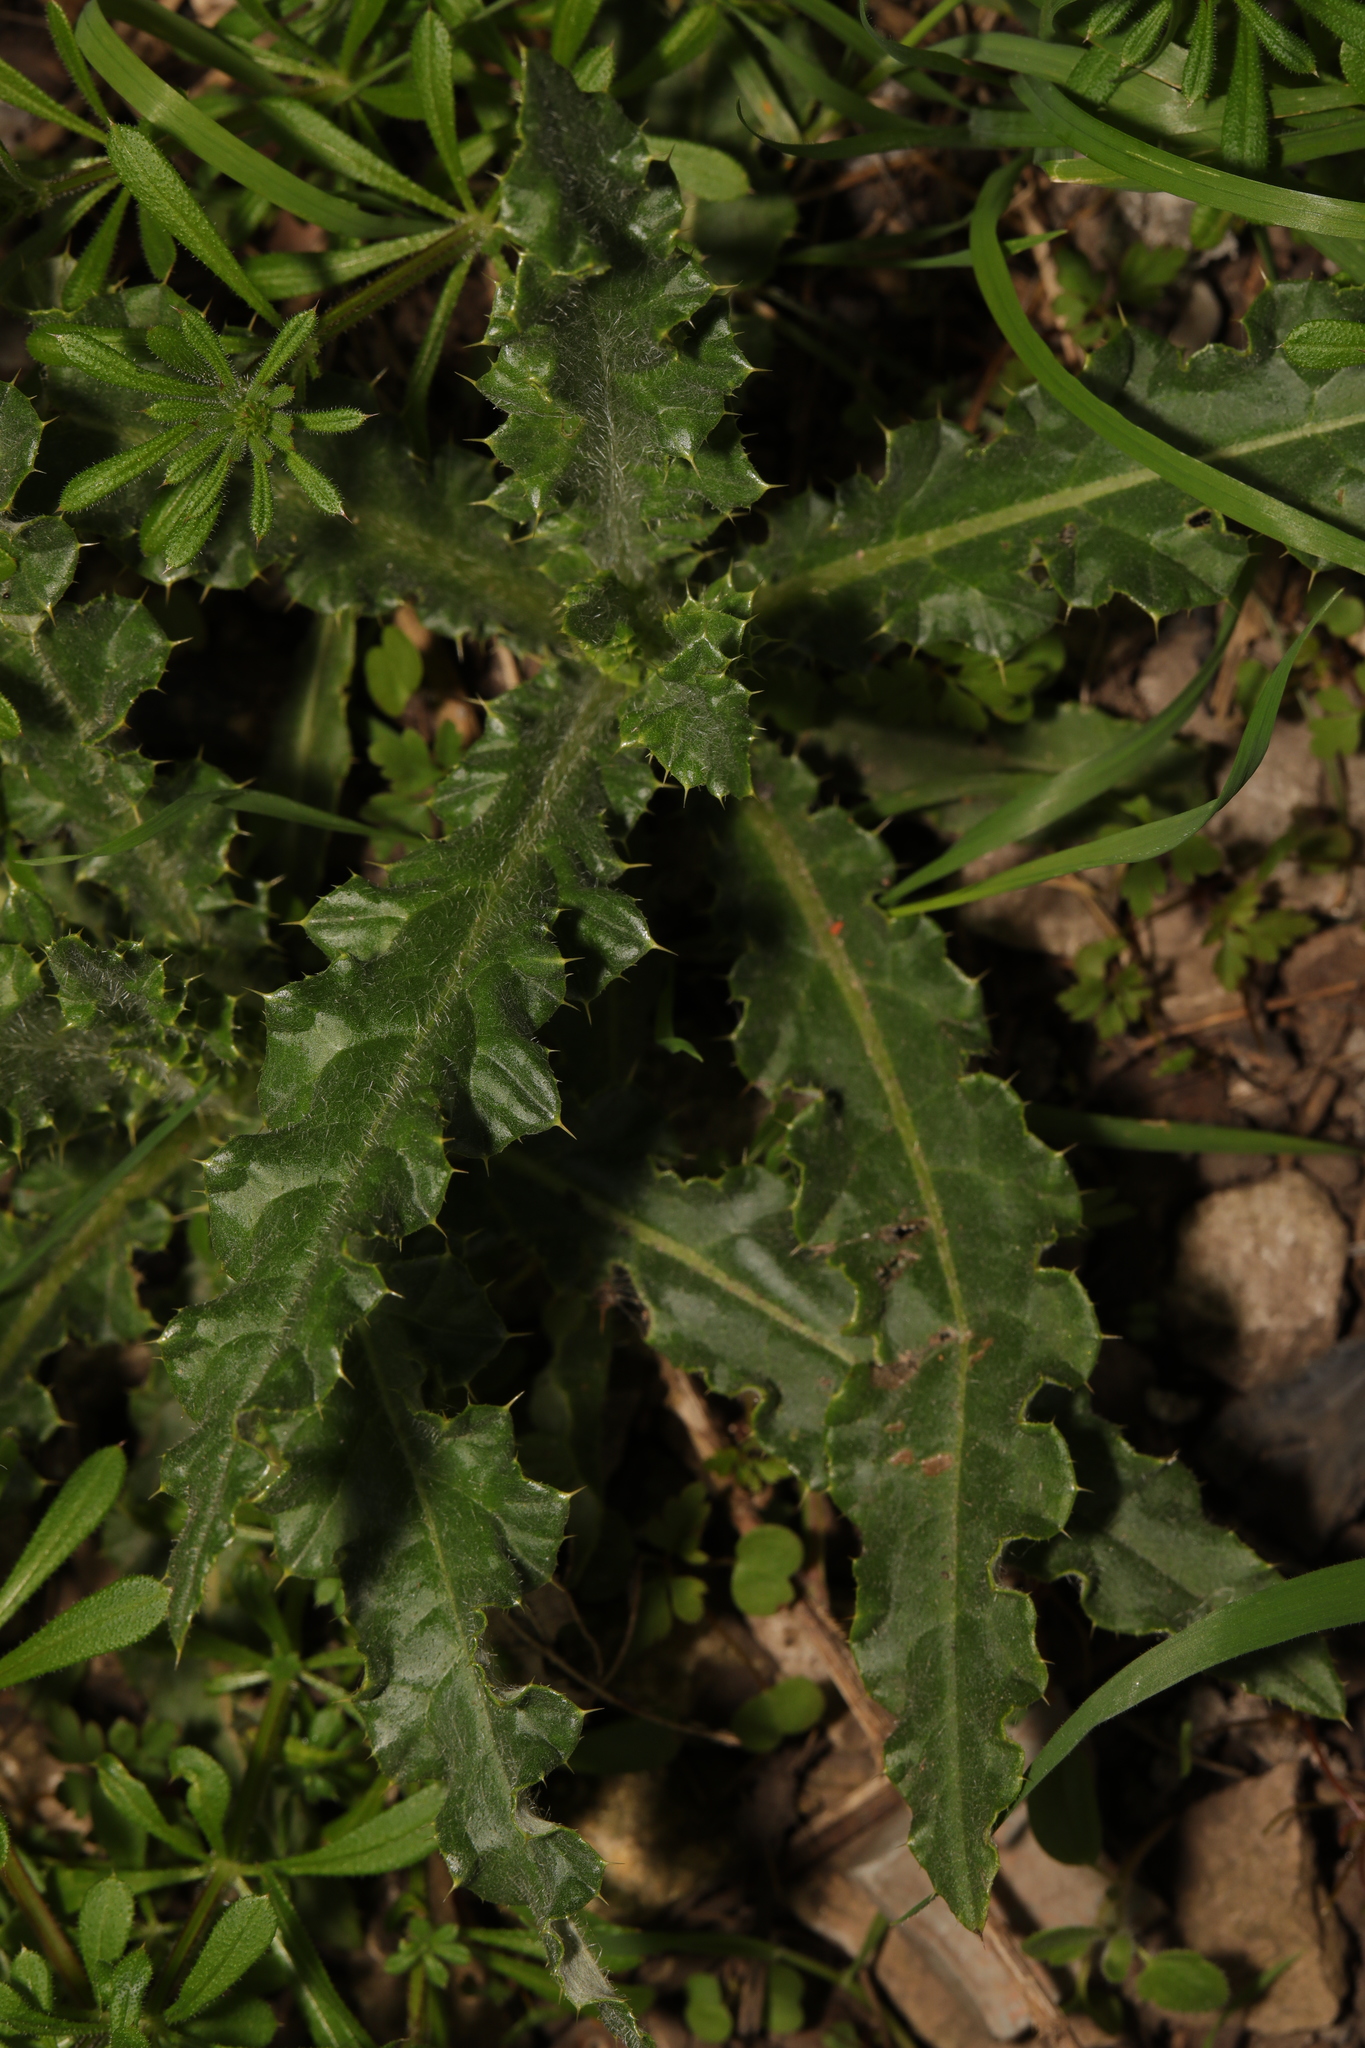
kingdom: Plantae
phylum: Tracheophyta
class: Magnoliopsida
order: Asterales
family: Asteraceae
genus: Cirsium
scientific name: Cirsium arvense
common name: Creeping thistle
